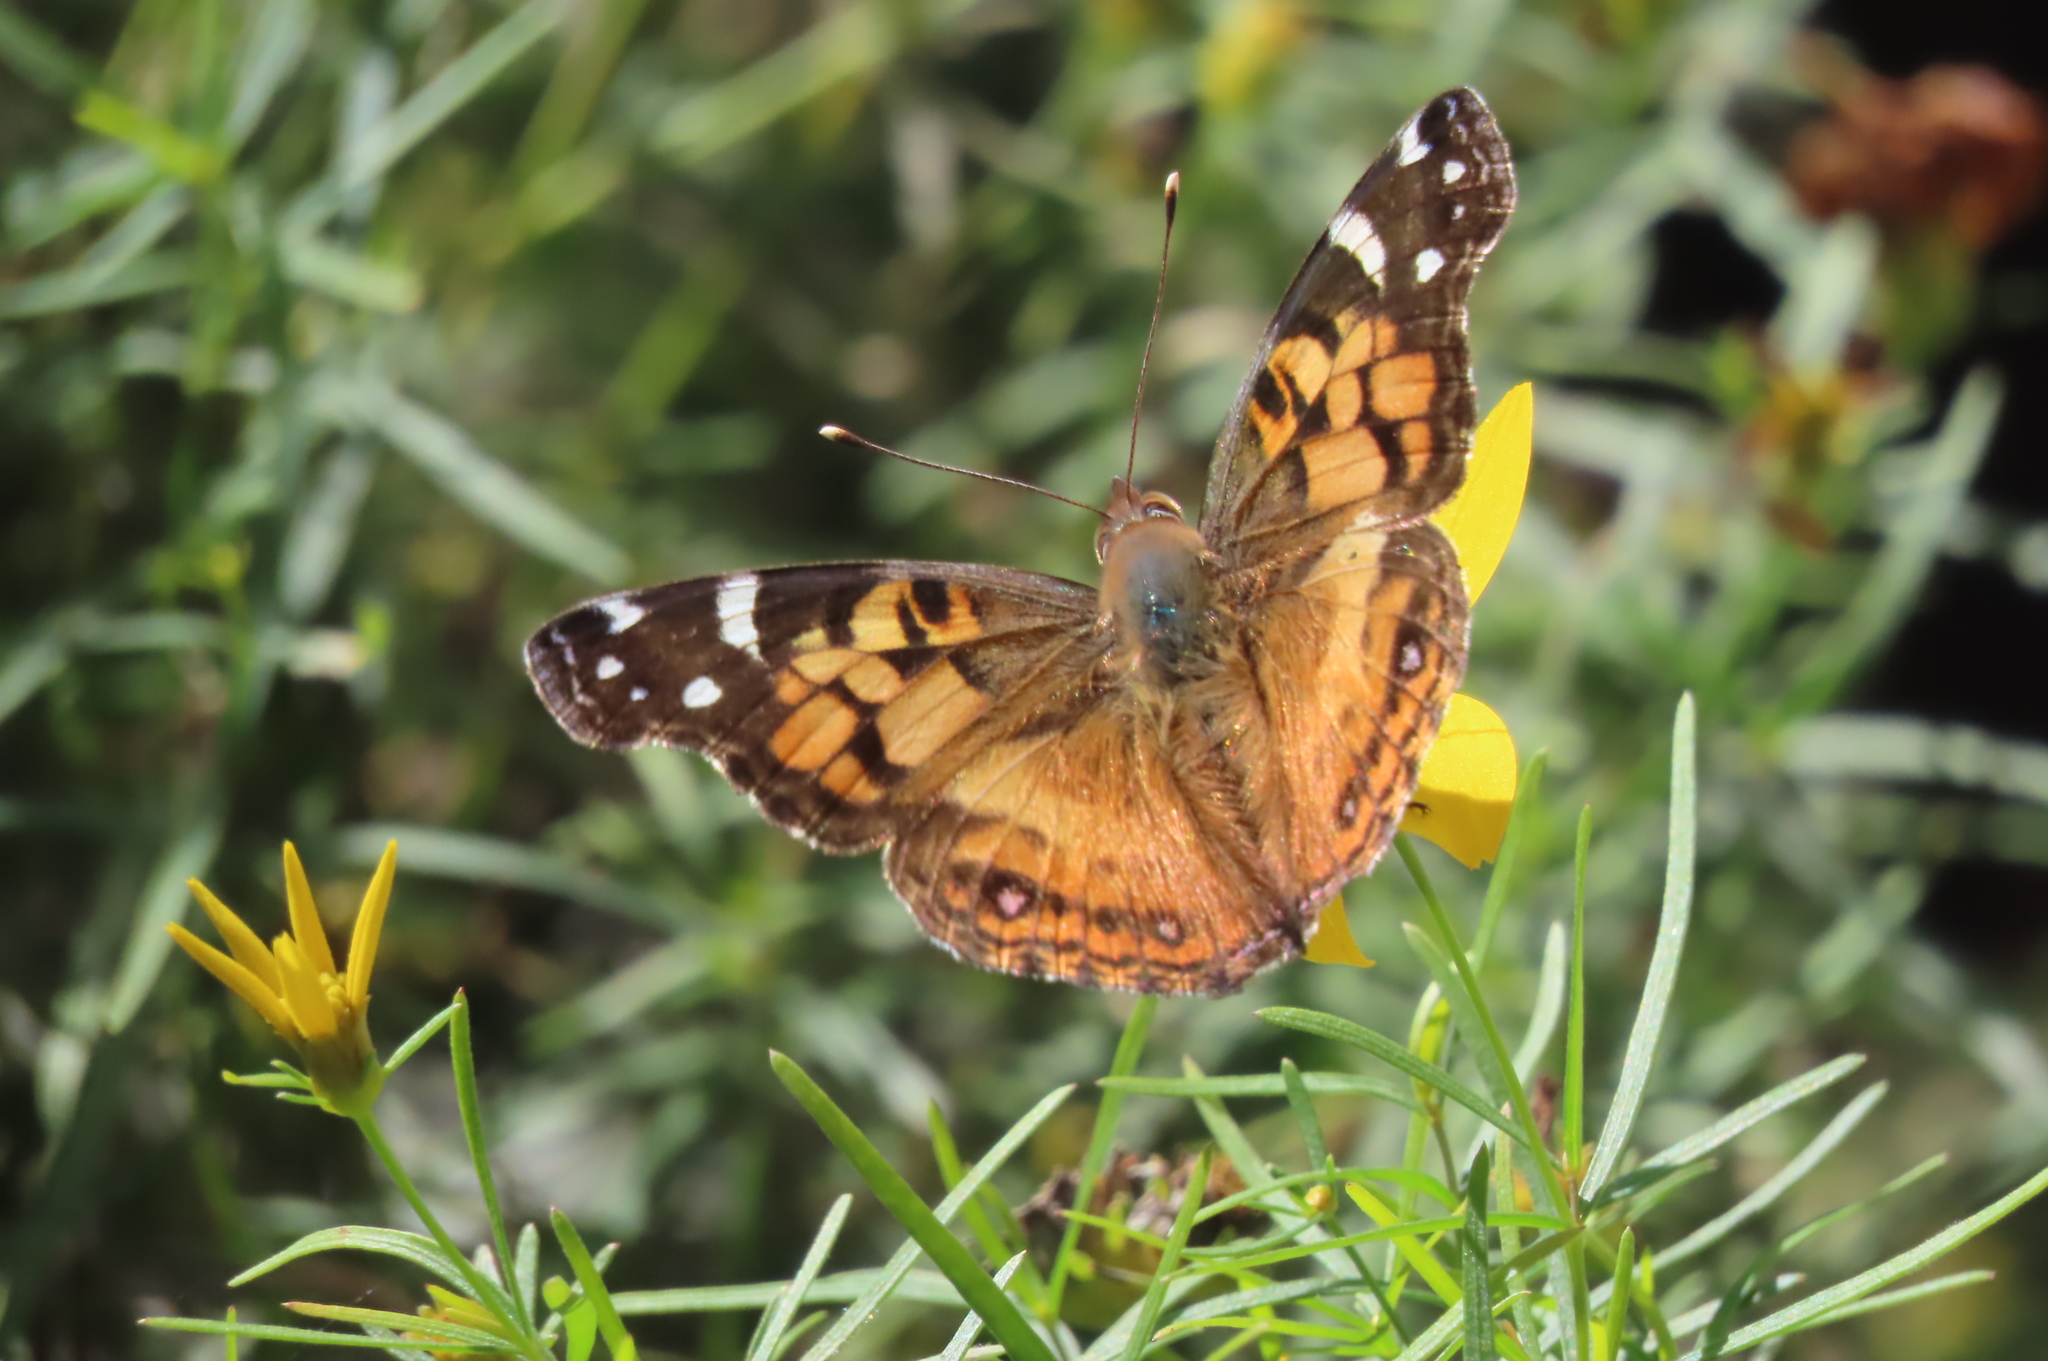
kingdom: Animalia
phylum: Arthropoda
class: Insecta
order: Lepidoptera
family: Nymphalidae
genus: Vanessa
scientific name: Vanessa virginiensis
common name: American lady
